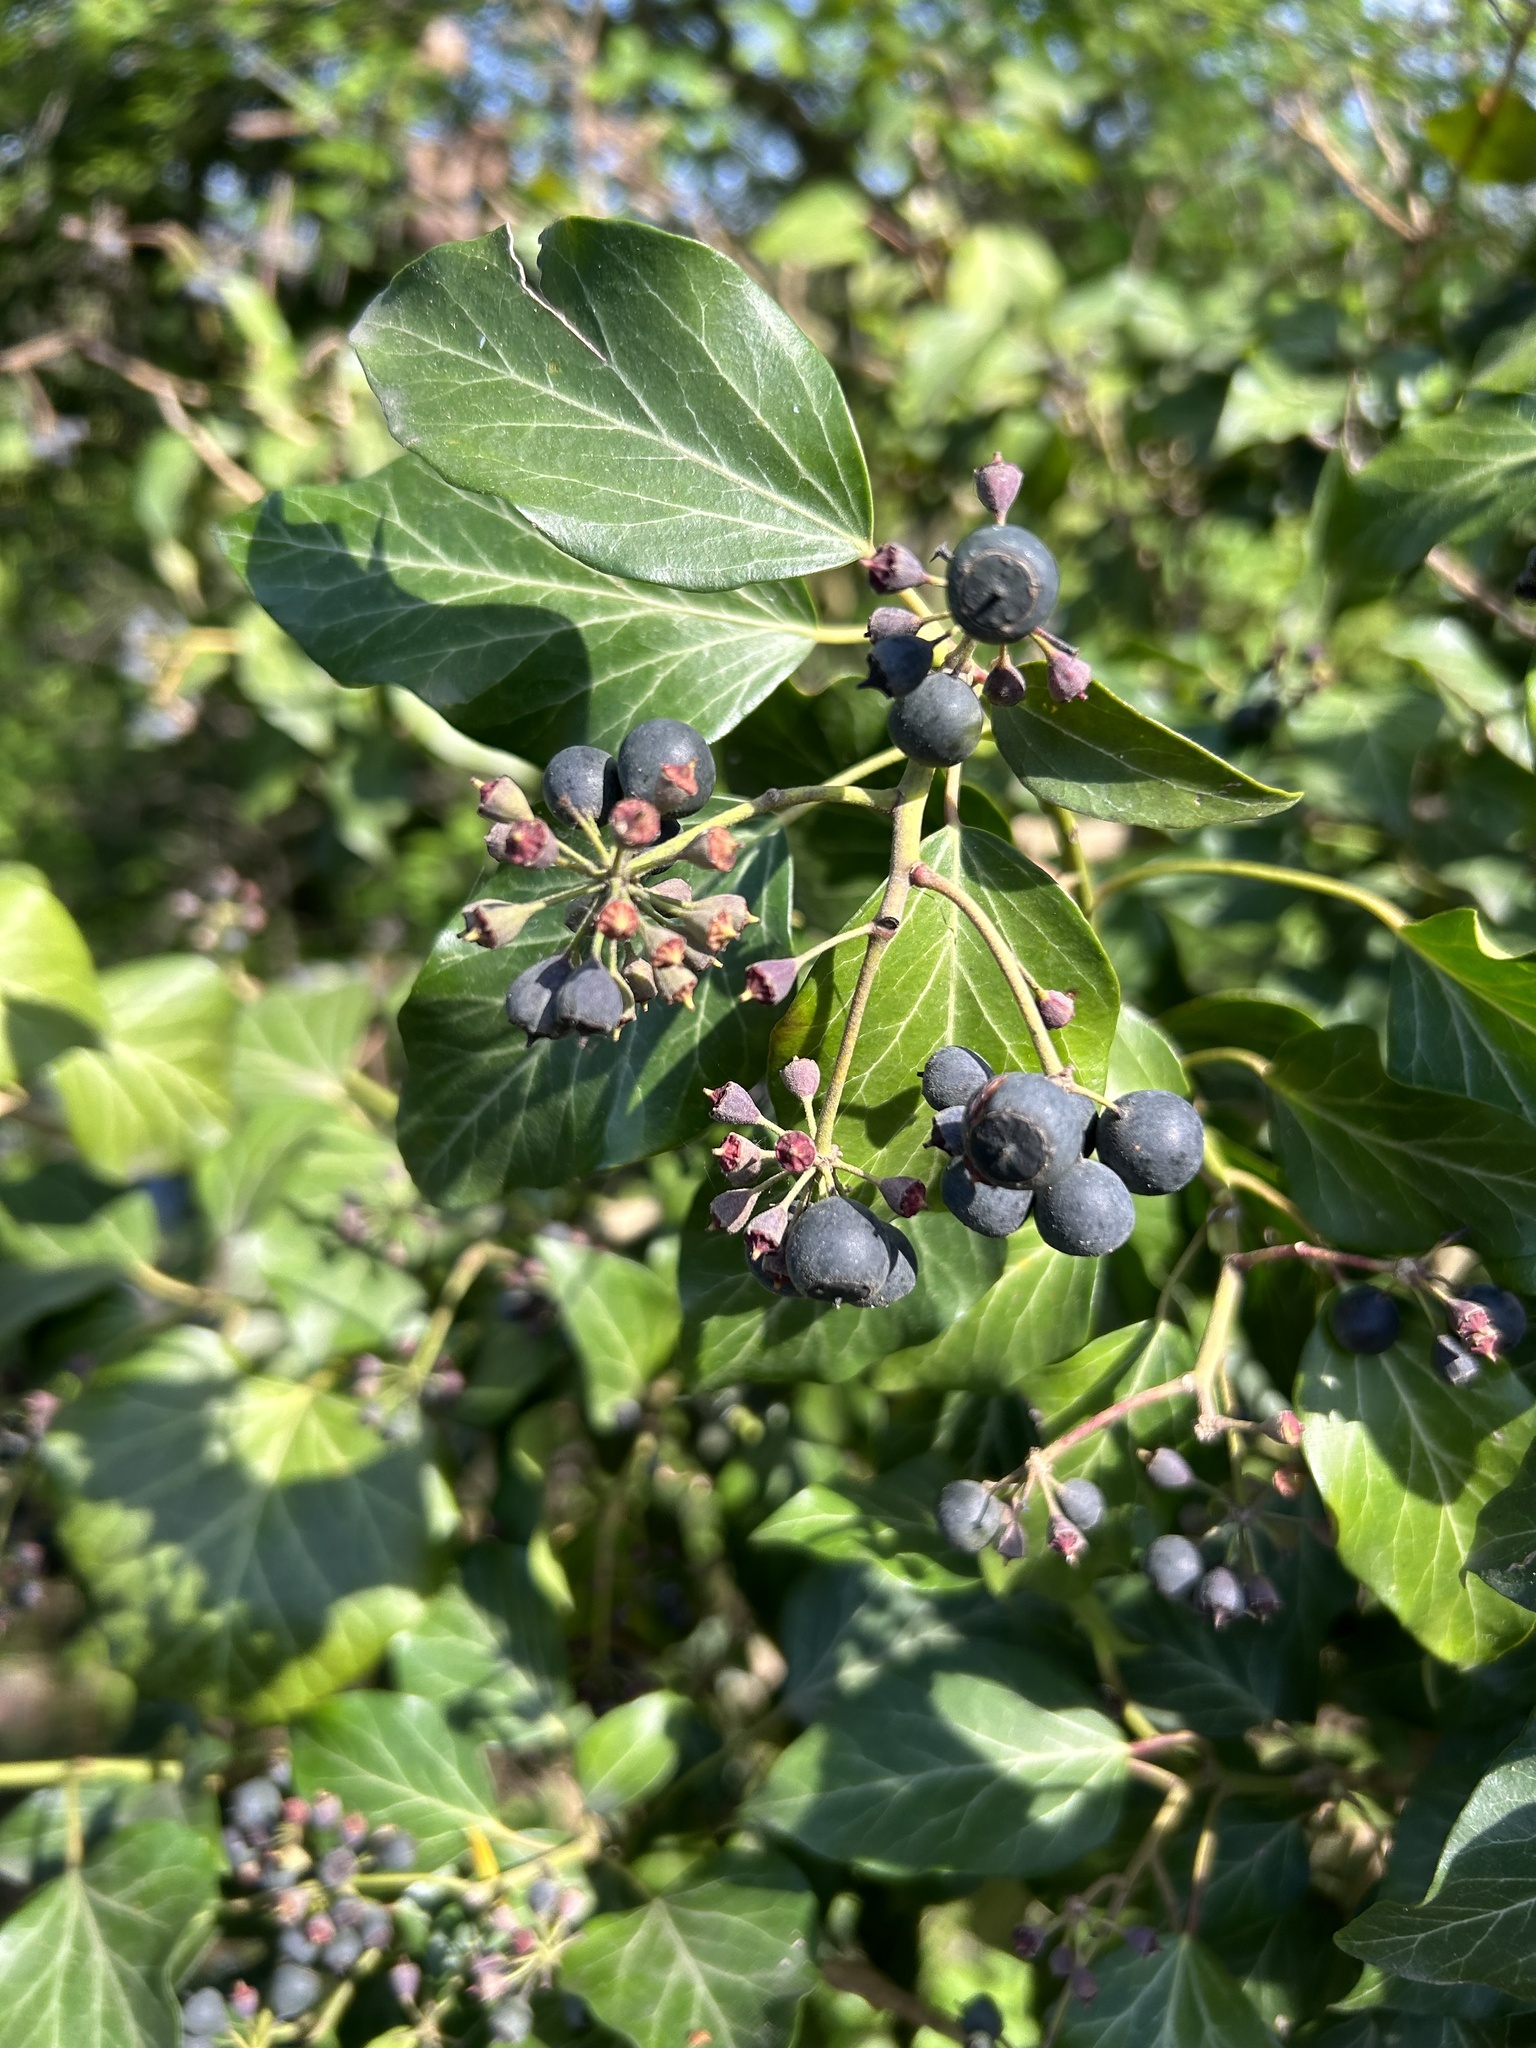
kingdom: Plantae
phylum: Tracheophyta
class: Magnoliopsida
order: Apiales
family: Araliaceae
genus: Hedera
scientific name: Hedera helix
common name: Ivy
